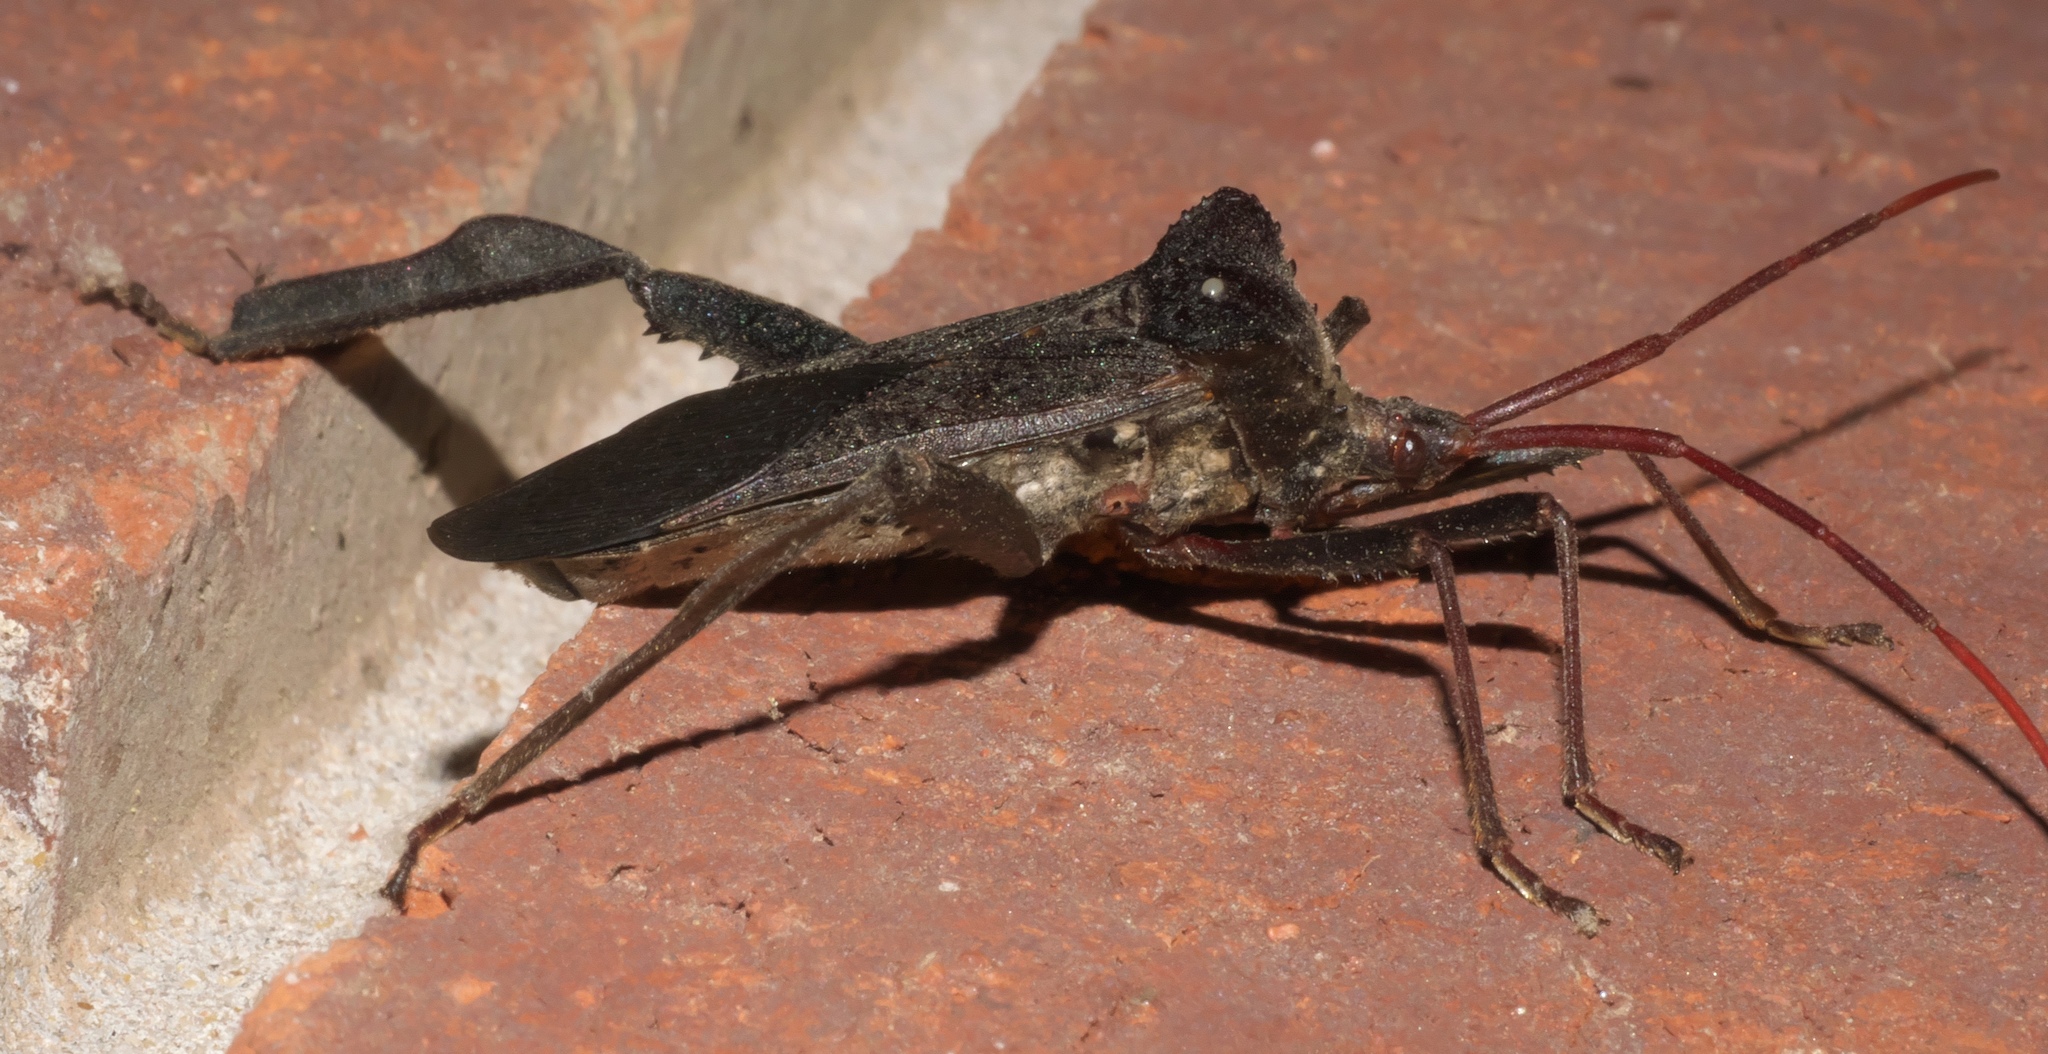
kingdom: Animalia
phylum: Arthropoda
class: Insecta
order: Hemiptera
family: Coreidae
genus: Acanthocephala
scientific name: Acanthocephala declivis
